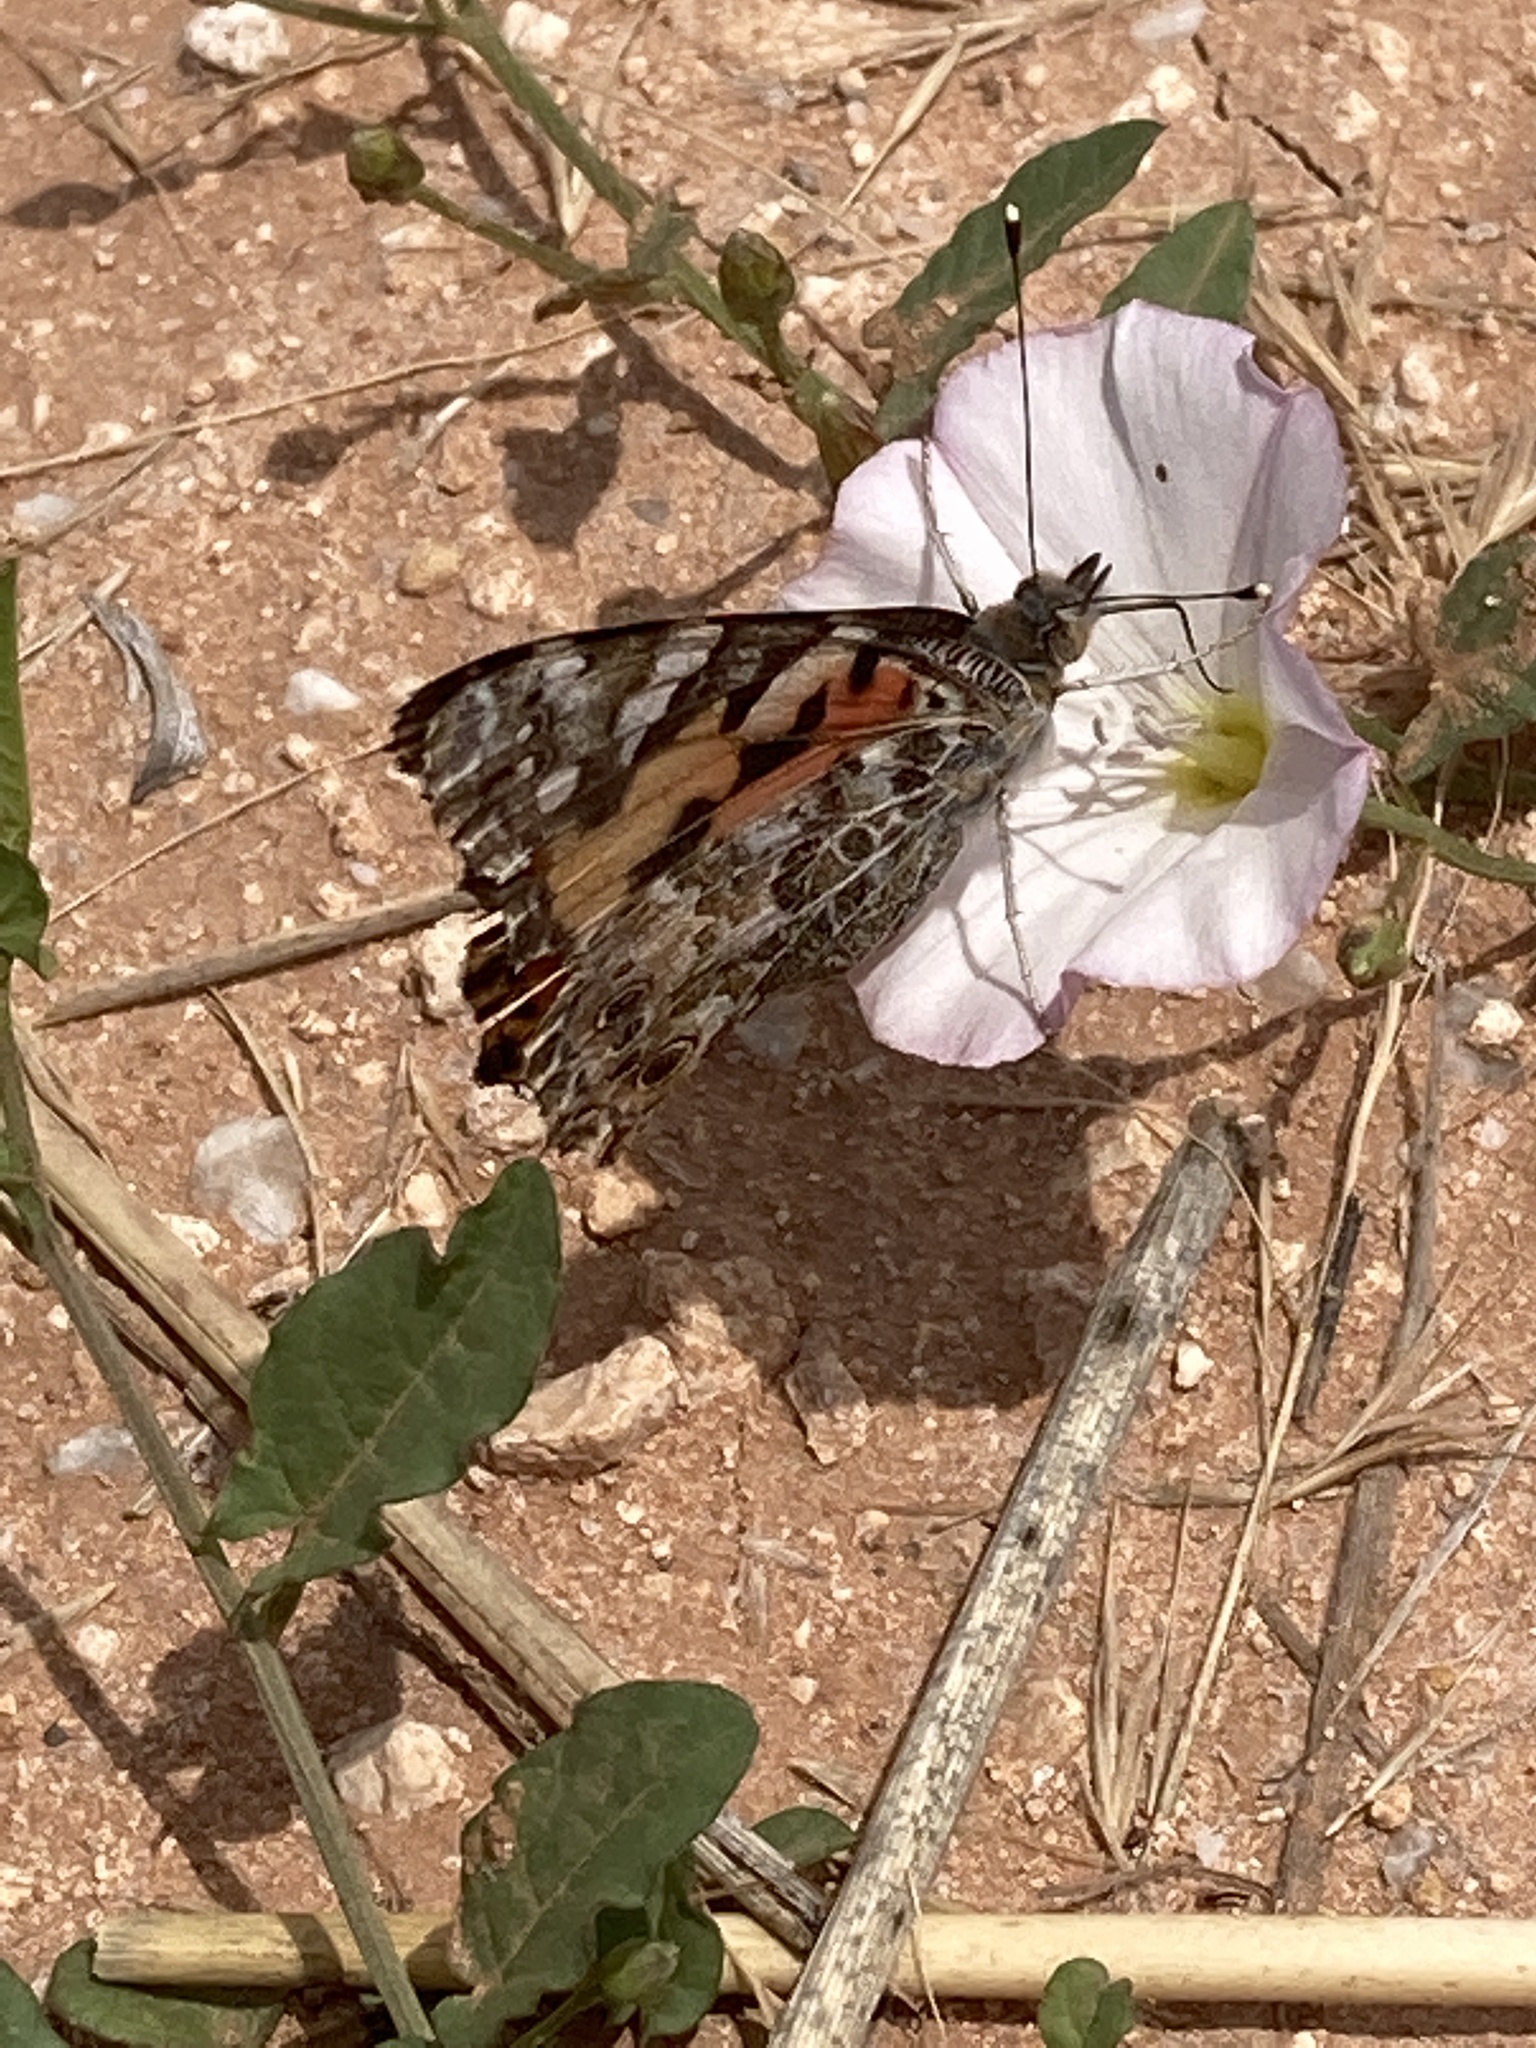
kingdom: Animalia
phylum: Arthropoda
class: Insecta
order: Lepidoptera
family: Nymphalidae
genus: Vanessa
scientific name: Vanessa cardui
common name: Painted lady
